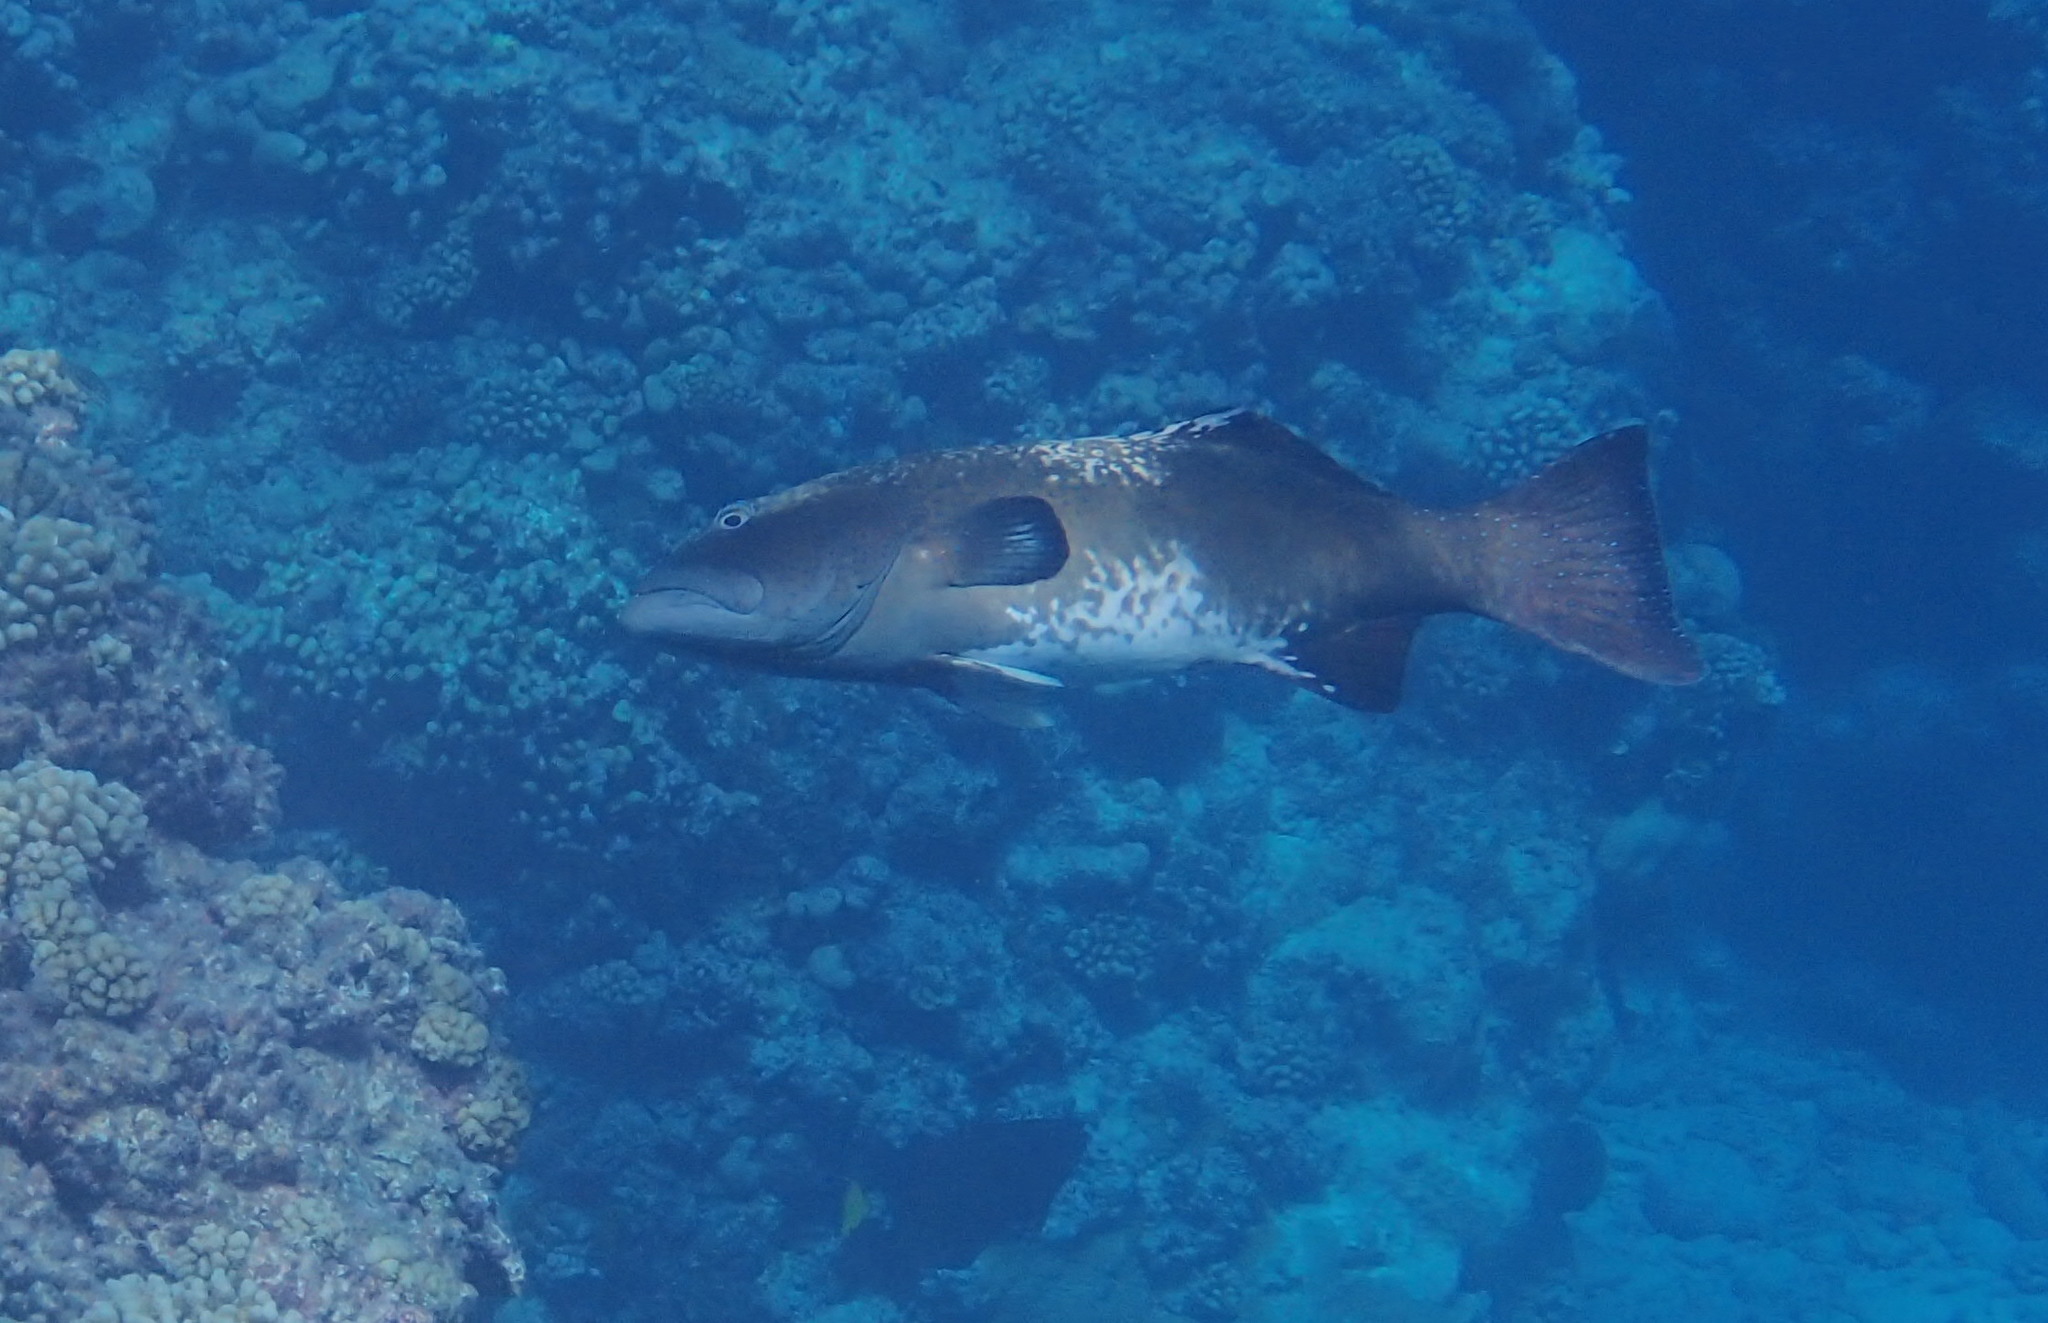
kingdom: Animalia
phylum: Chordata
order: Perciformes
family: Serranidae
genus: Plectropomus
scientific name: Plectropomus laevis
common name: Chinese footballer
